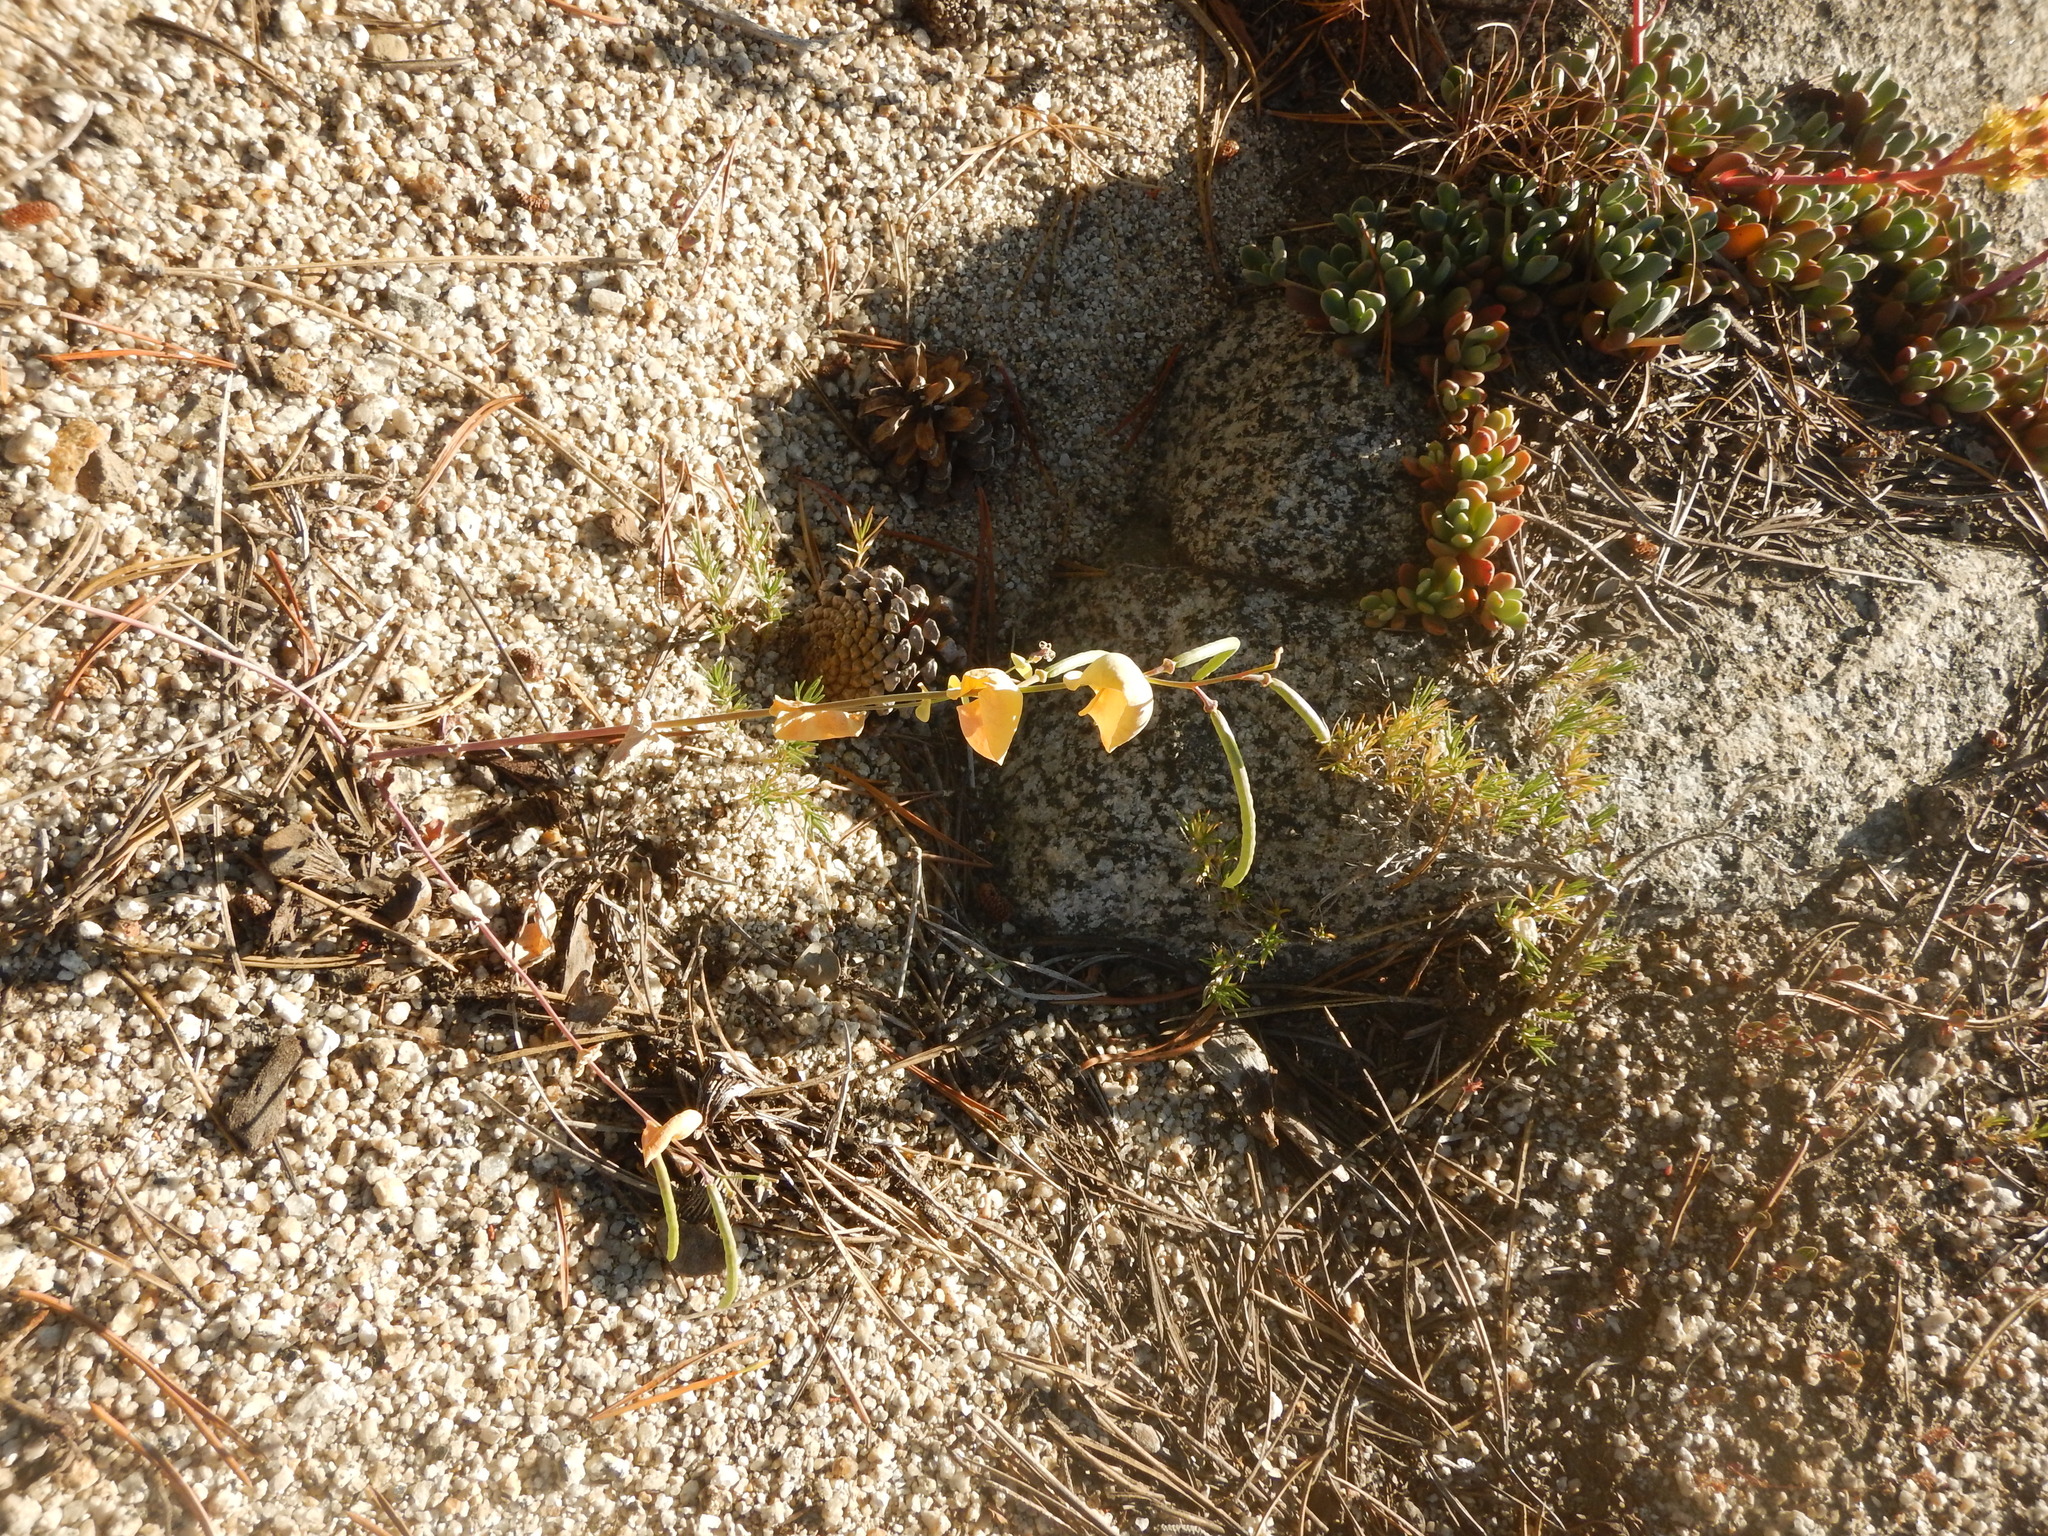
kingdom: Plantae
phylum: Tracheophyta
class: Magnoliopsida
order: Brassicales
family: Brassicaceae
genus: Streptanthus
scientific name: Streptanthus tortuosus
